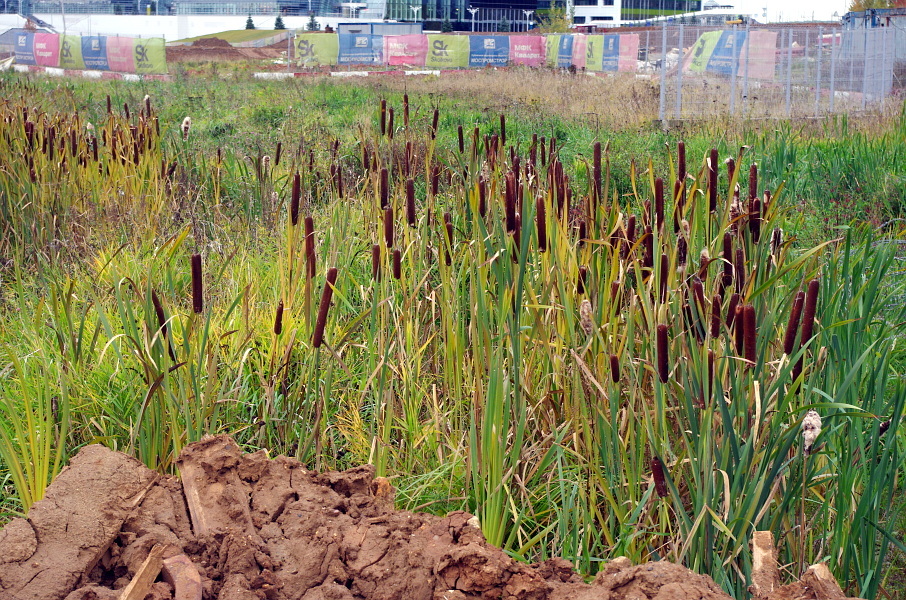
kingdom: Plantae
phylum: Tracheophyta
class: Liliopsida
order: Poales
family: Typhaceae
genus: Typha
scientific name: Typha latifolia
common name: Broadleaf cattail
